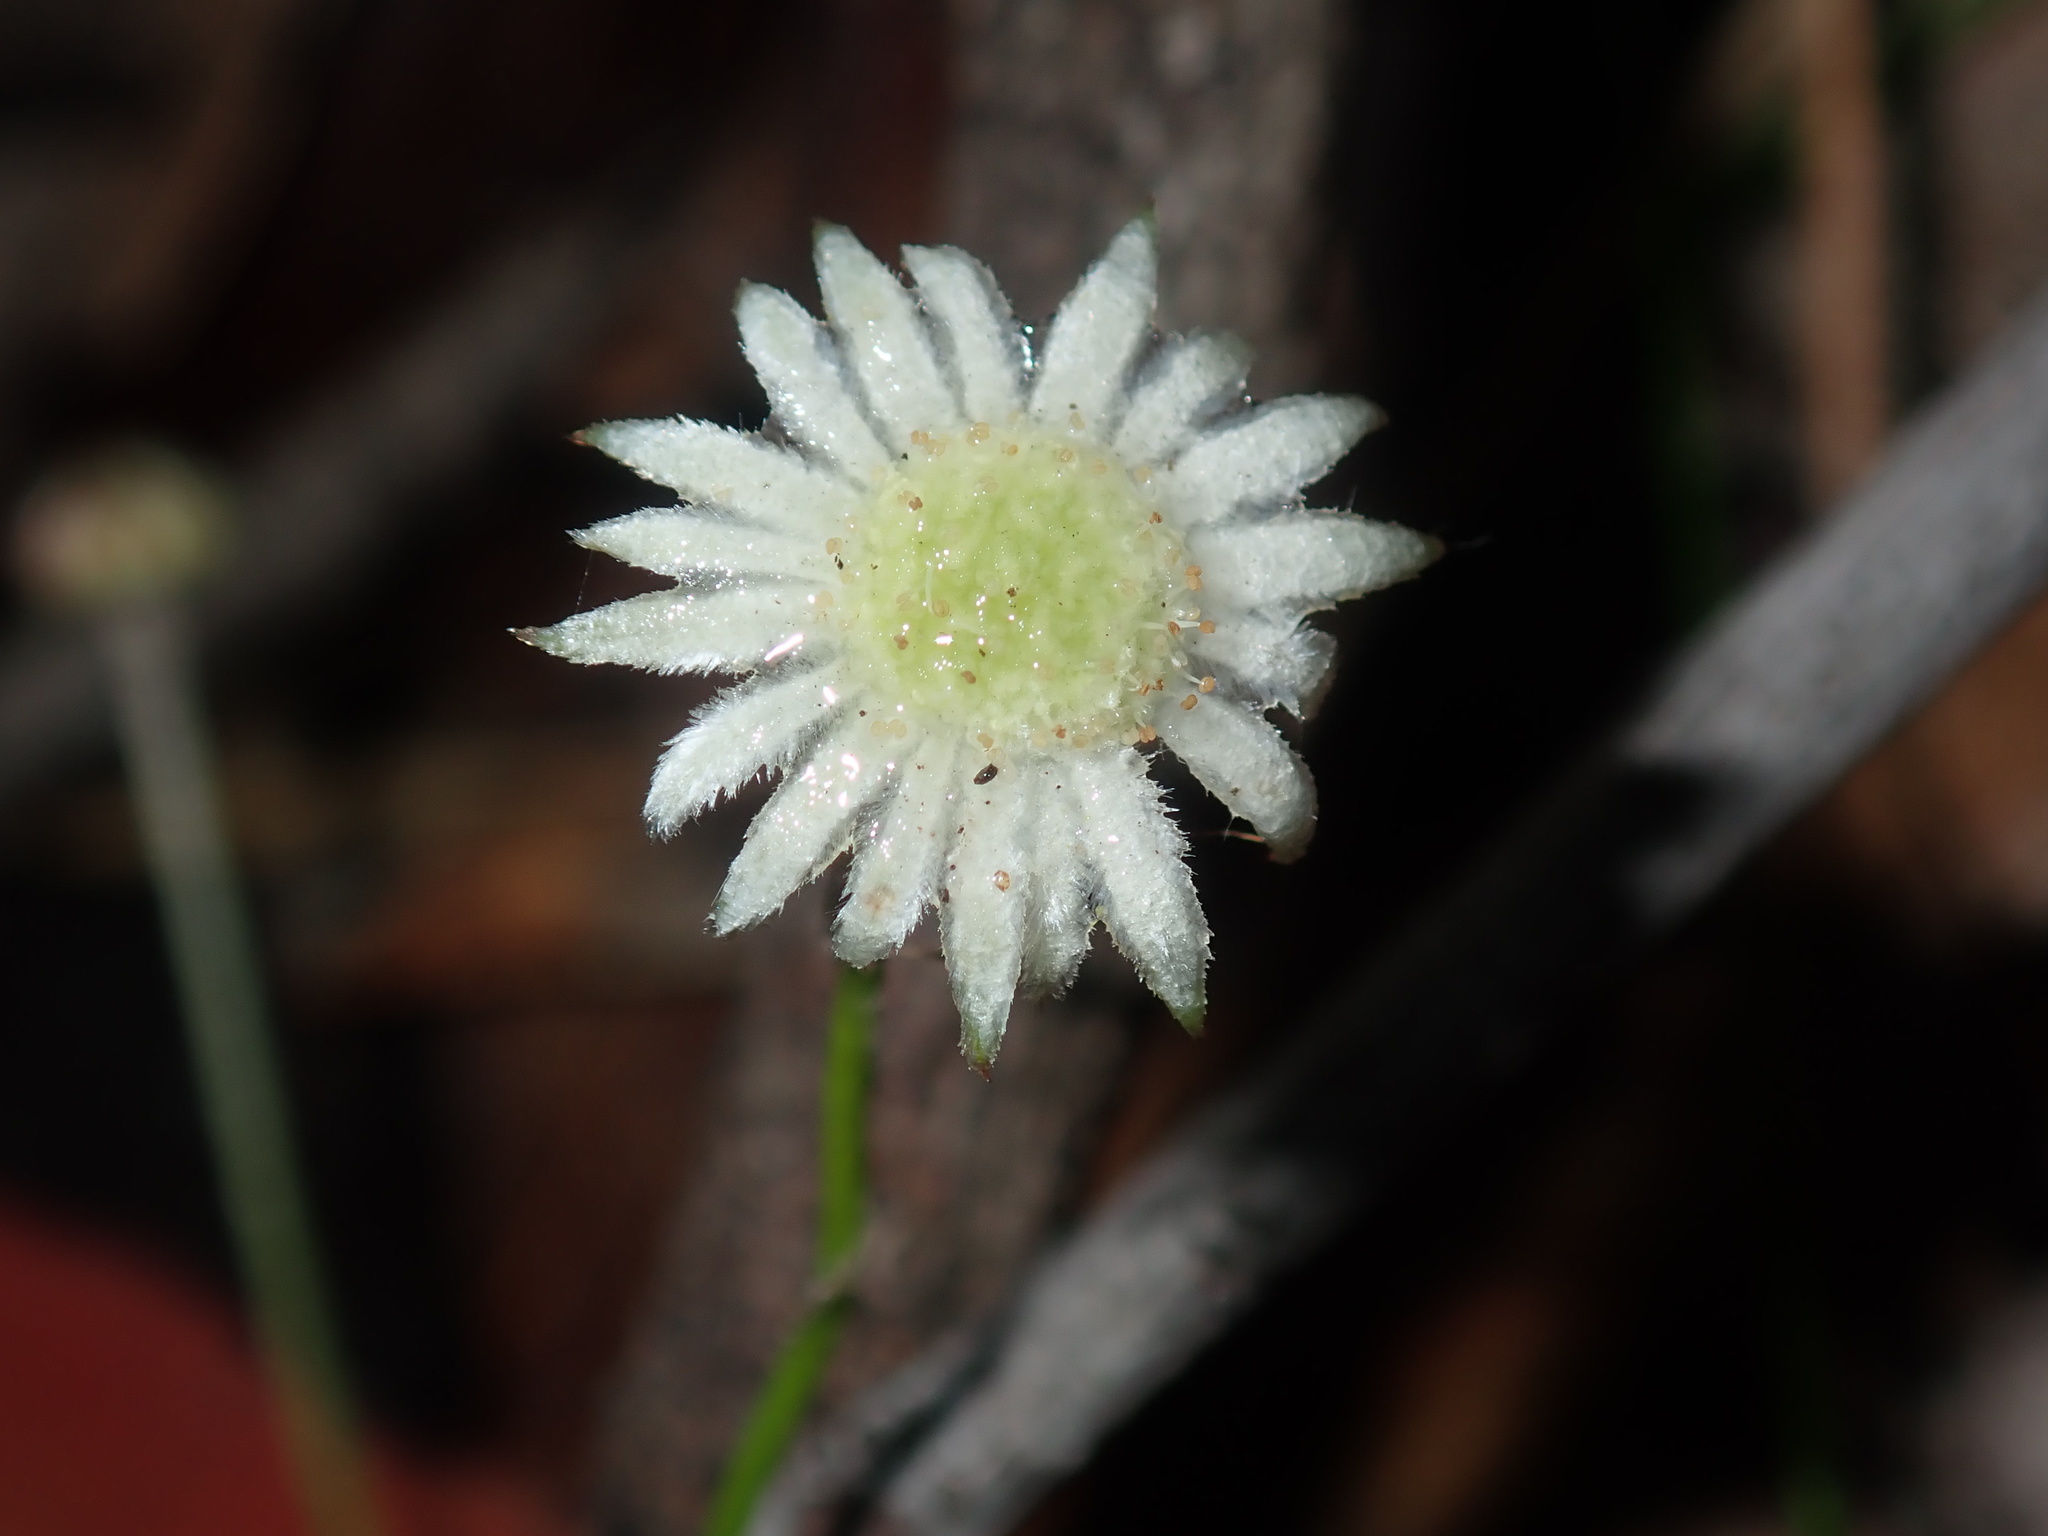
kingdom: Plantae
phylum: Tracheophyta
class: Magnoliopsida
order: Apiales
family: Apiaceae
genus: Actinotus
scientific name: Actinotus minor
